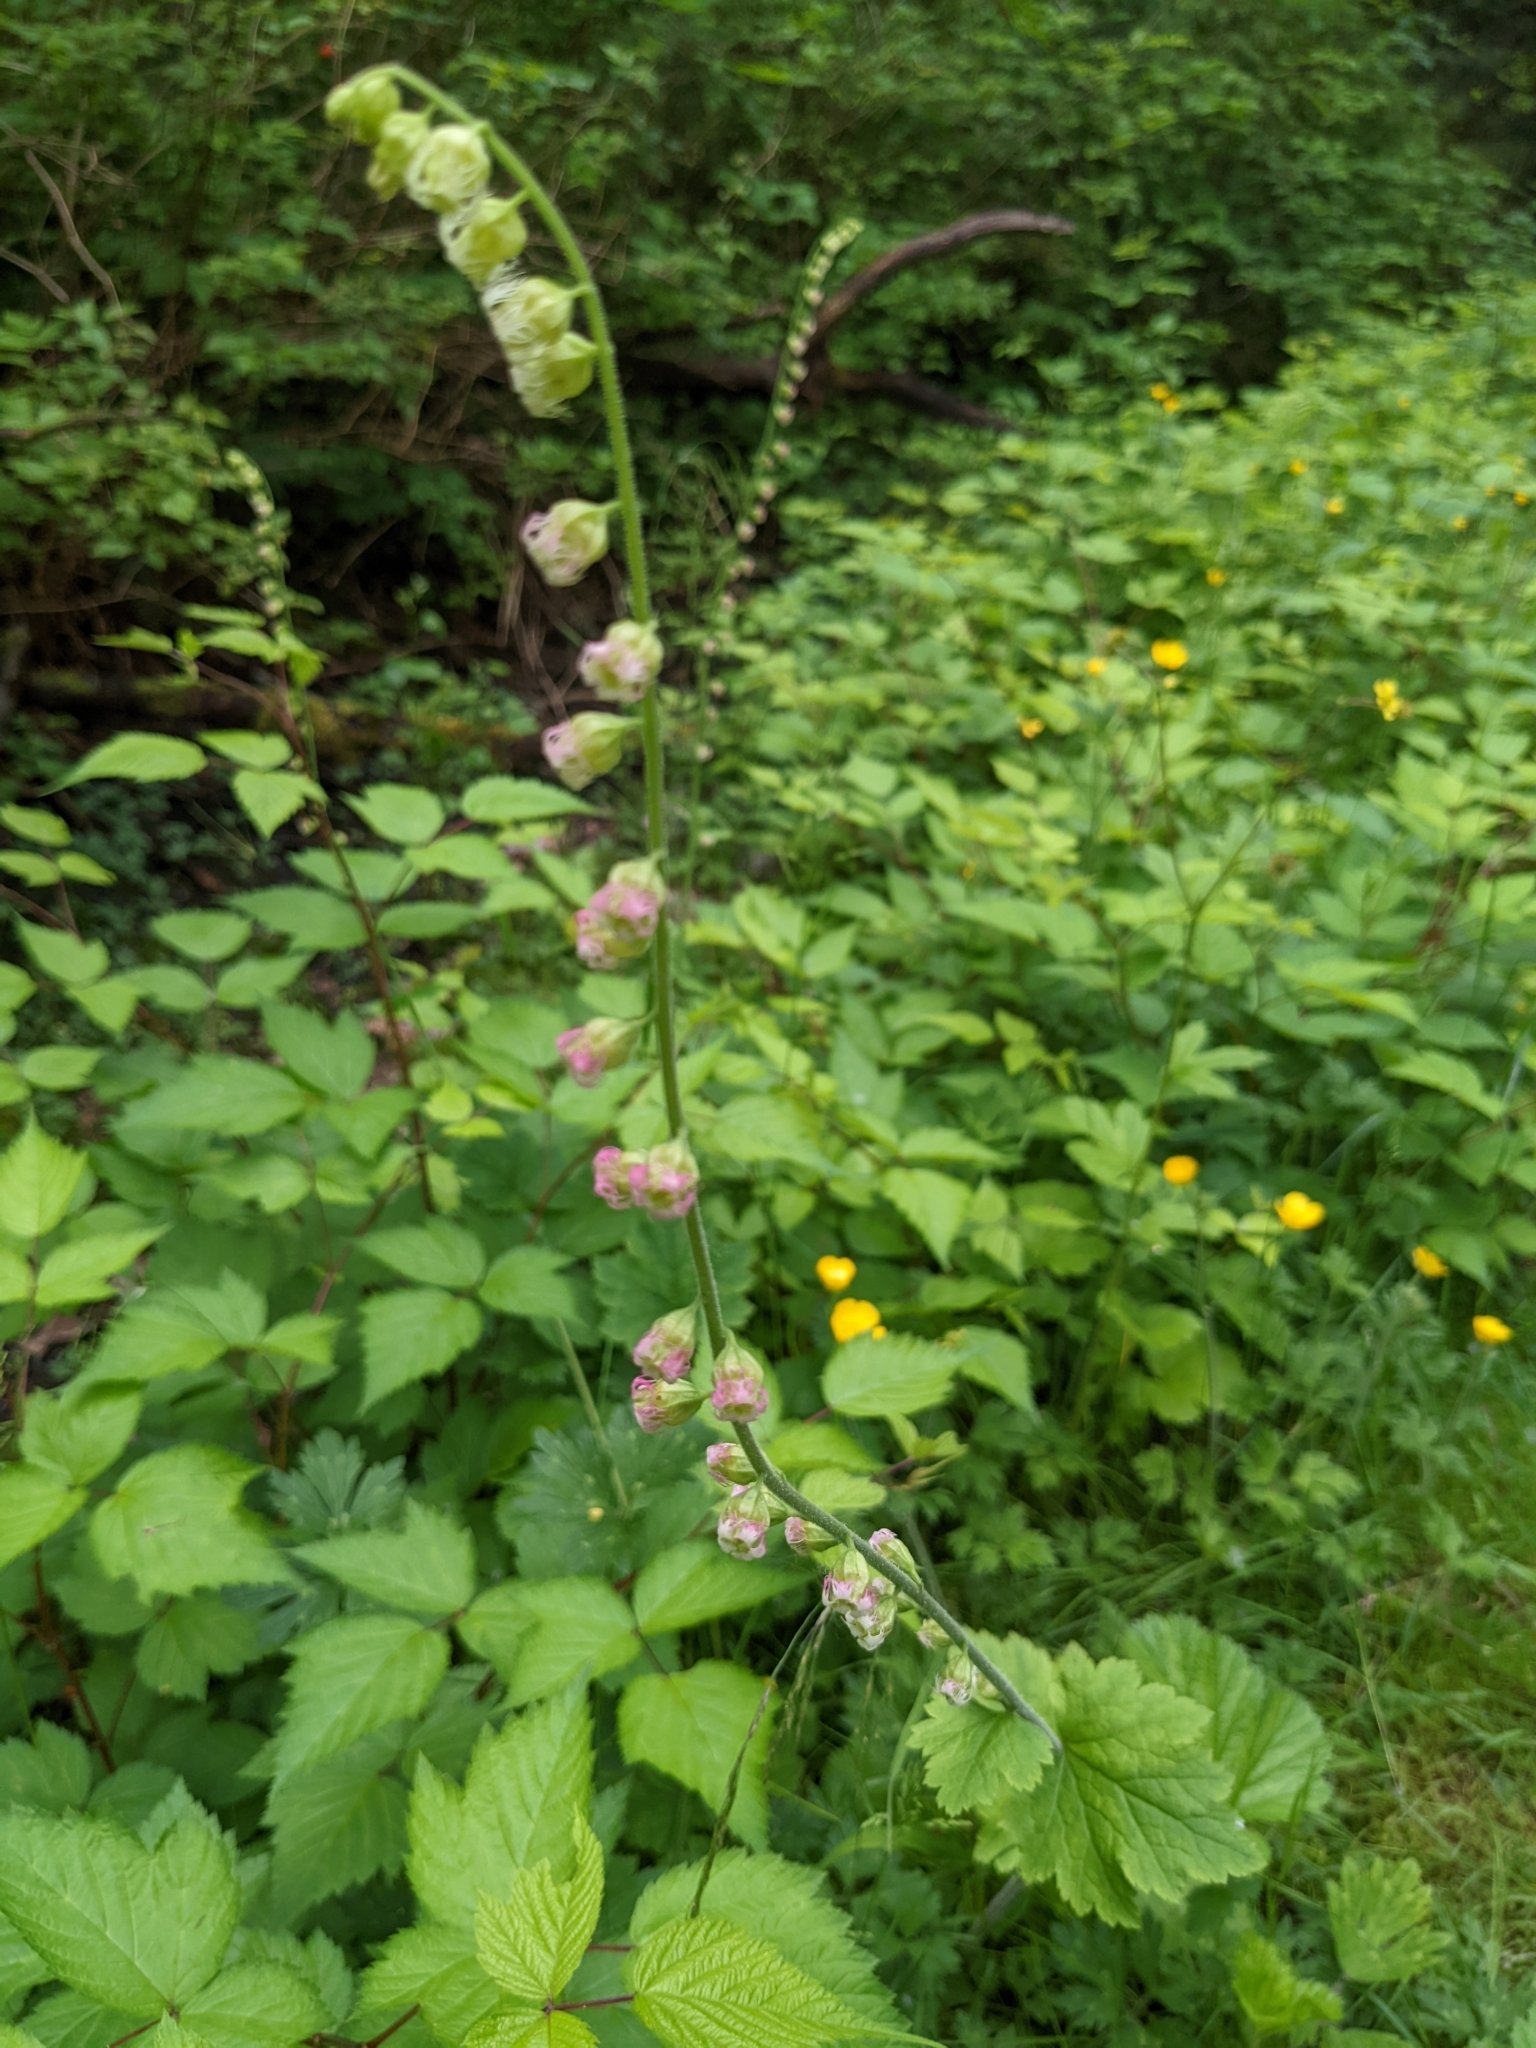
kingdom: Plantae
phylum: Tracheophyta
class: Magnoliopsida
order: Saxifragales
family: Saxifragaceae
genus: Tellima
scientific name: Tellima grandiflora
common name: Fringecups
